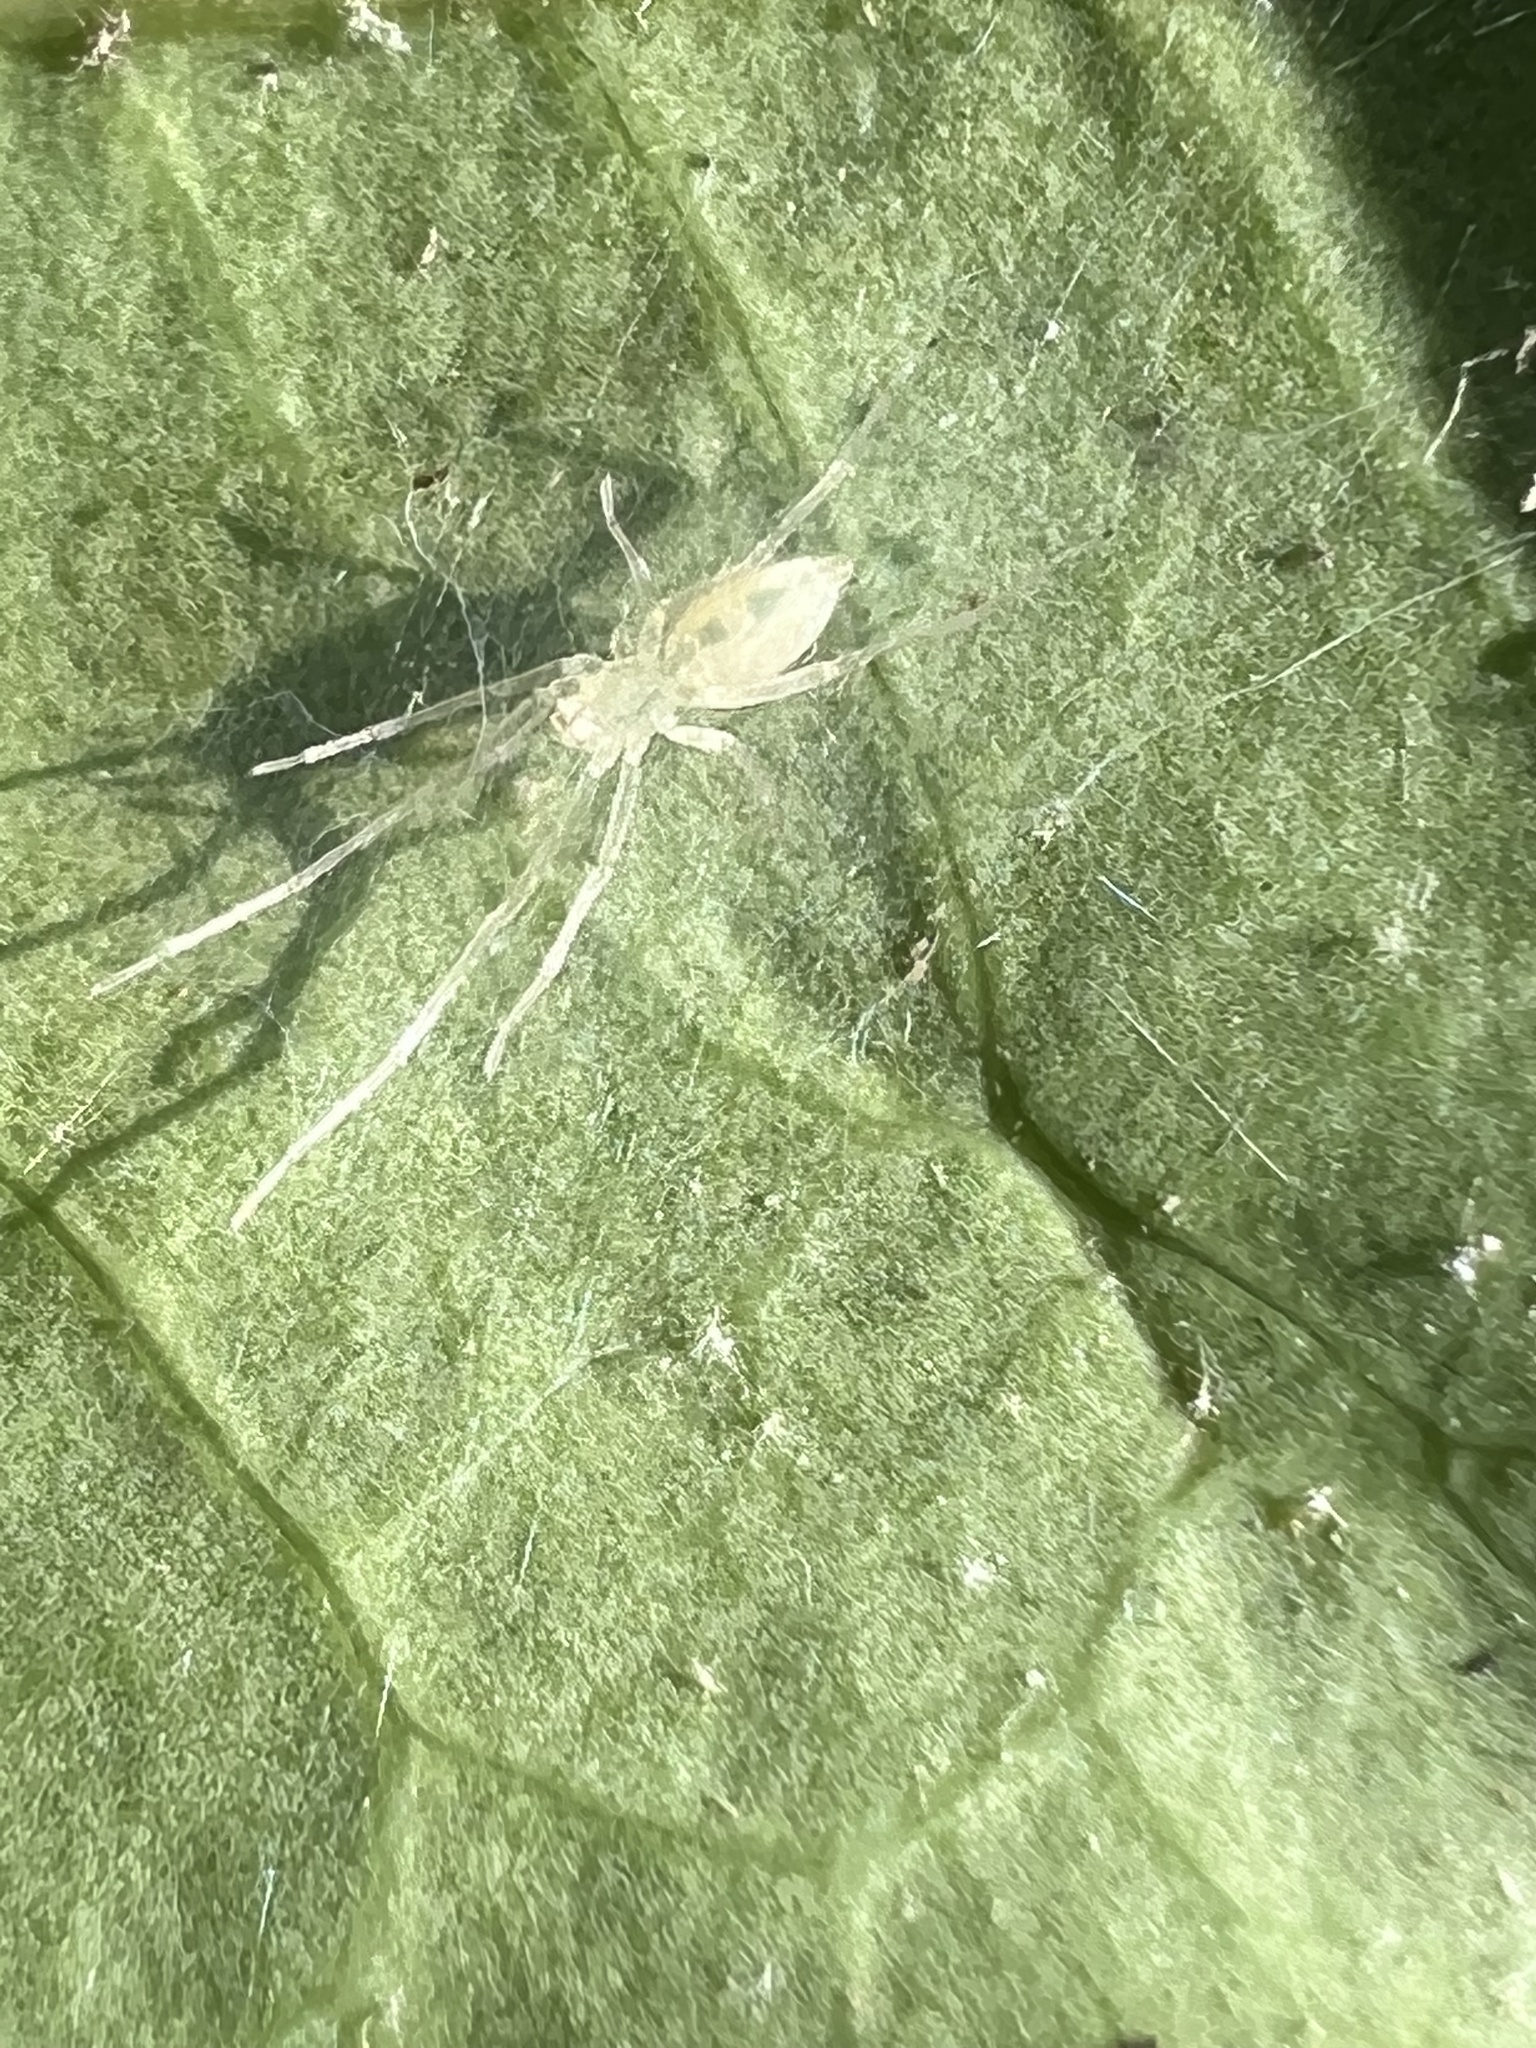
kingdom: Animalia
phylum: Arthropoda
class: Arachnida
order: Araneae
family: Anyphaenidae
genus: Wulfila
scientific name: Wulfila albens
